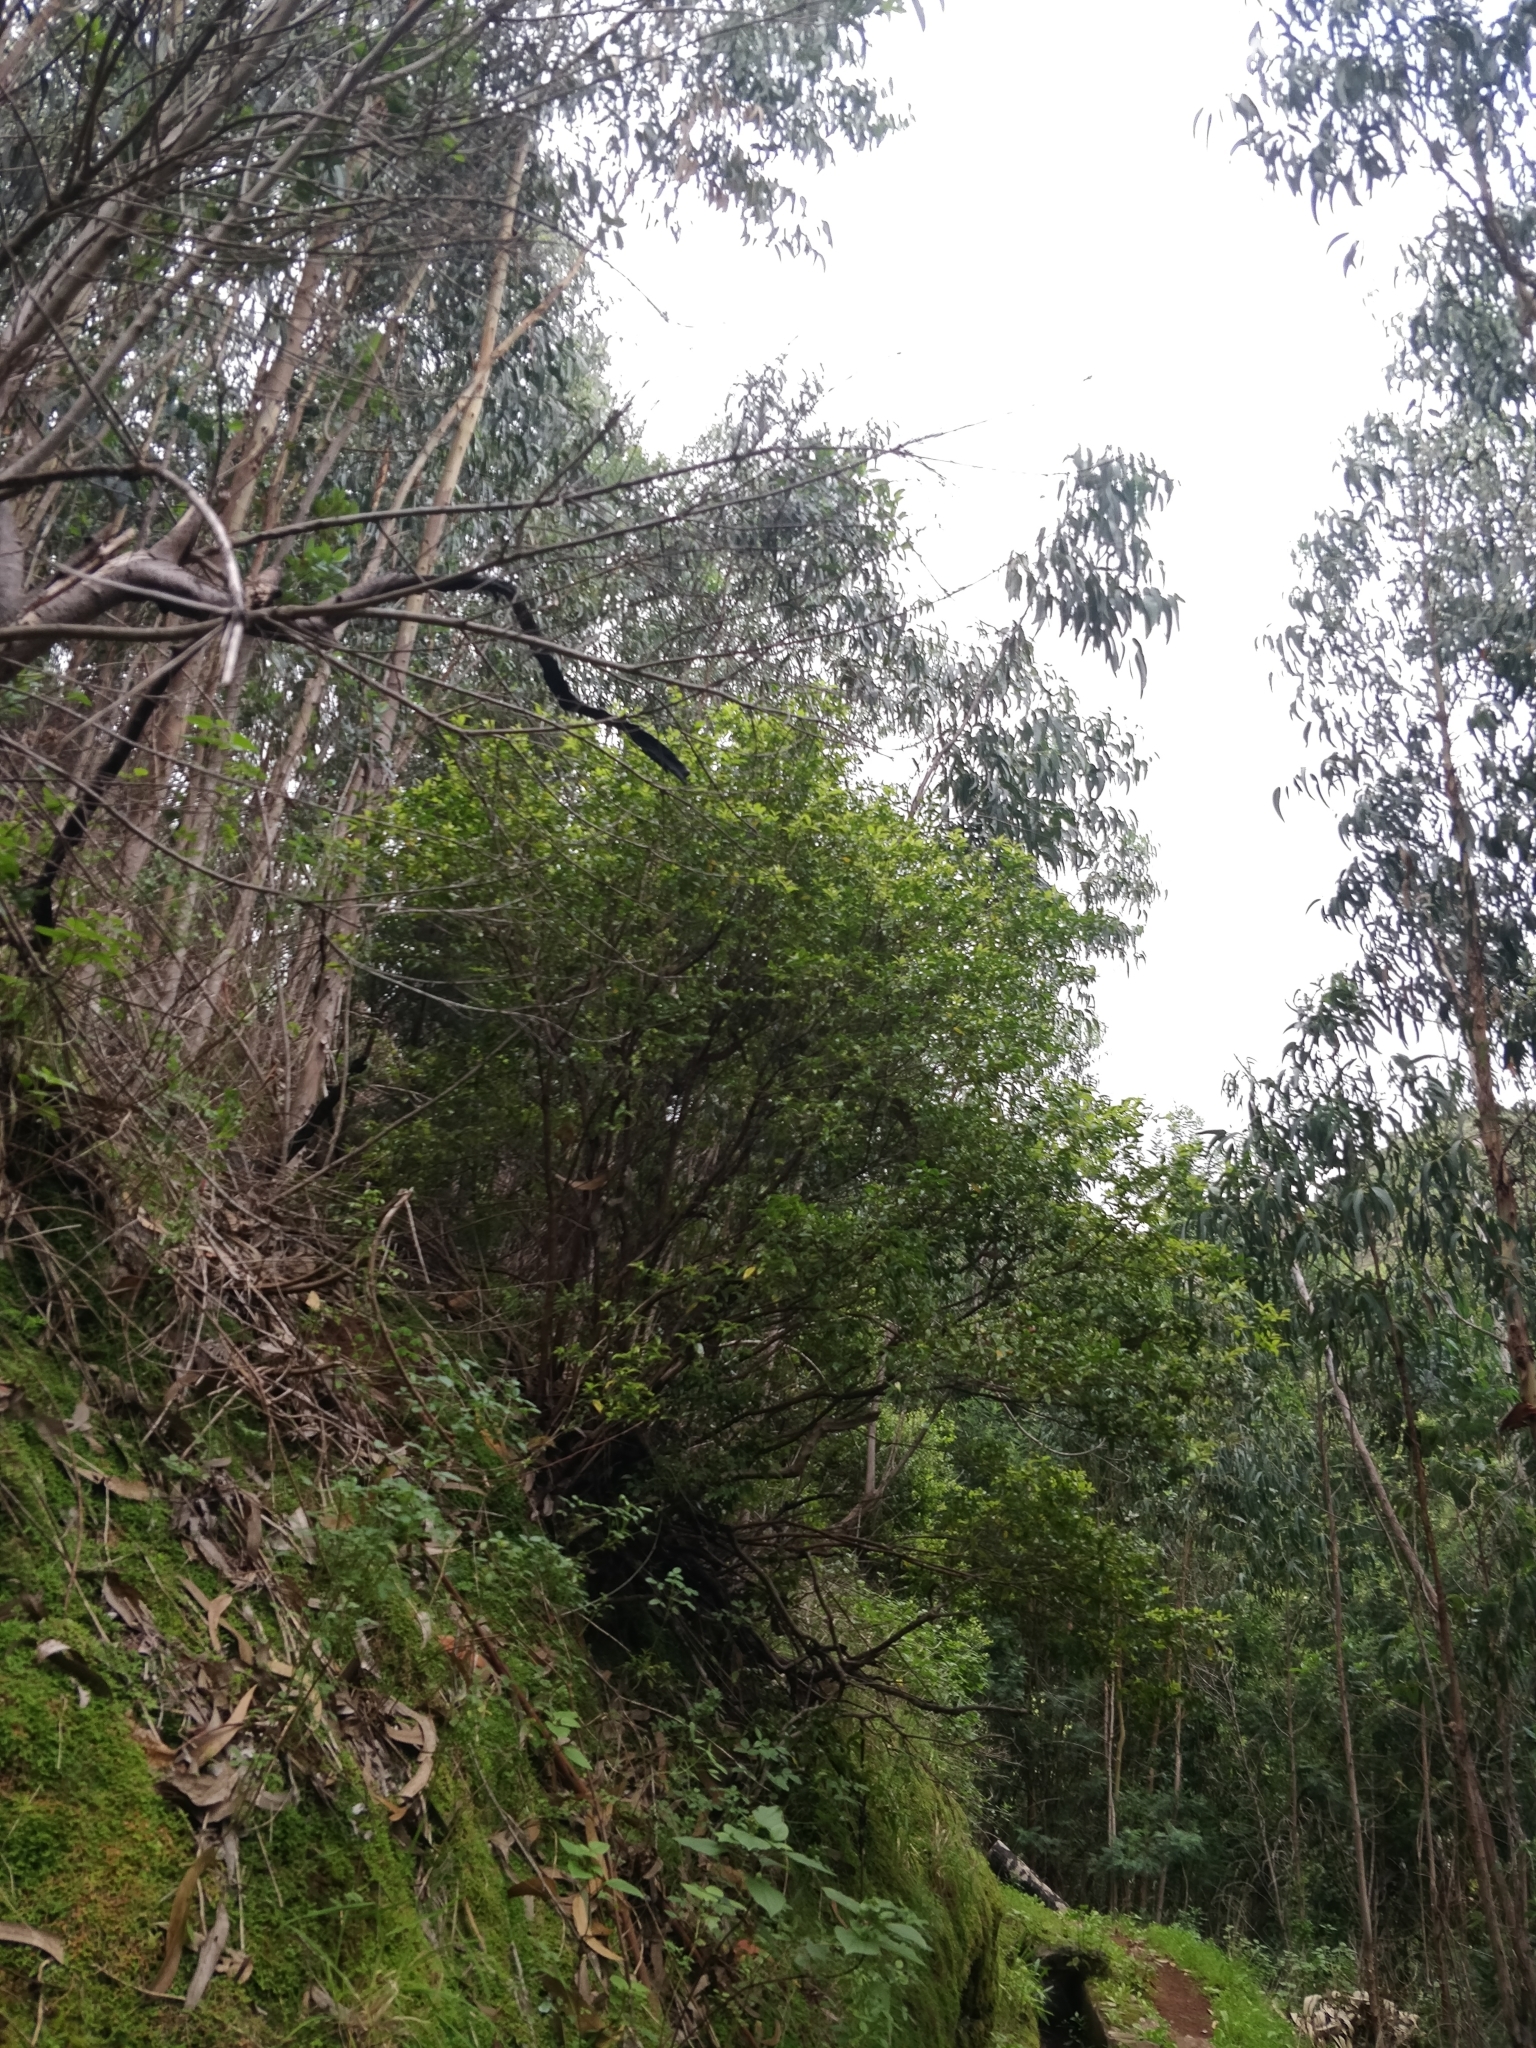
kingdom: Plantae
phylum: Tracheophyta
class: Magnoliopsida
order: Myrtales
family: Myrtaceae
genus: Myrtus
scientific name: Myrtus communis
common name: Myrtle
